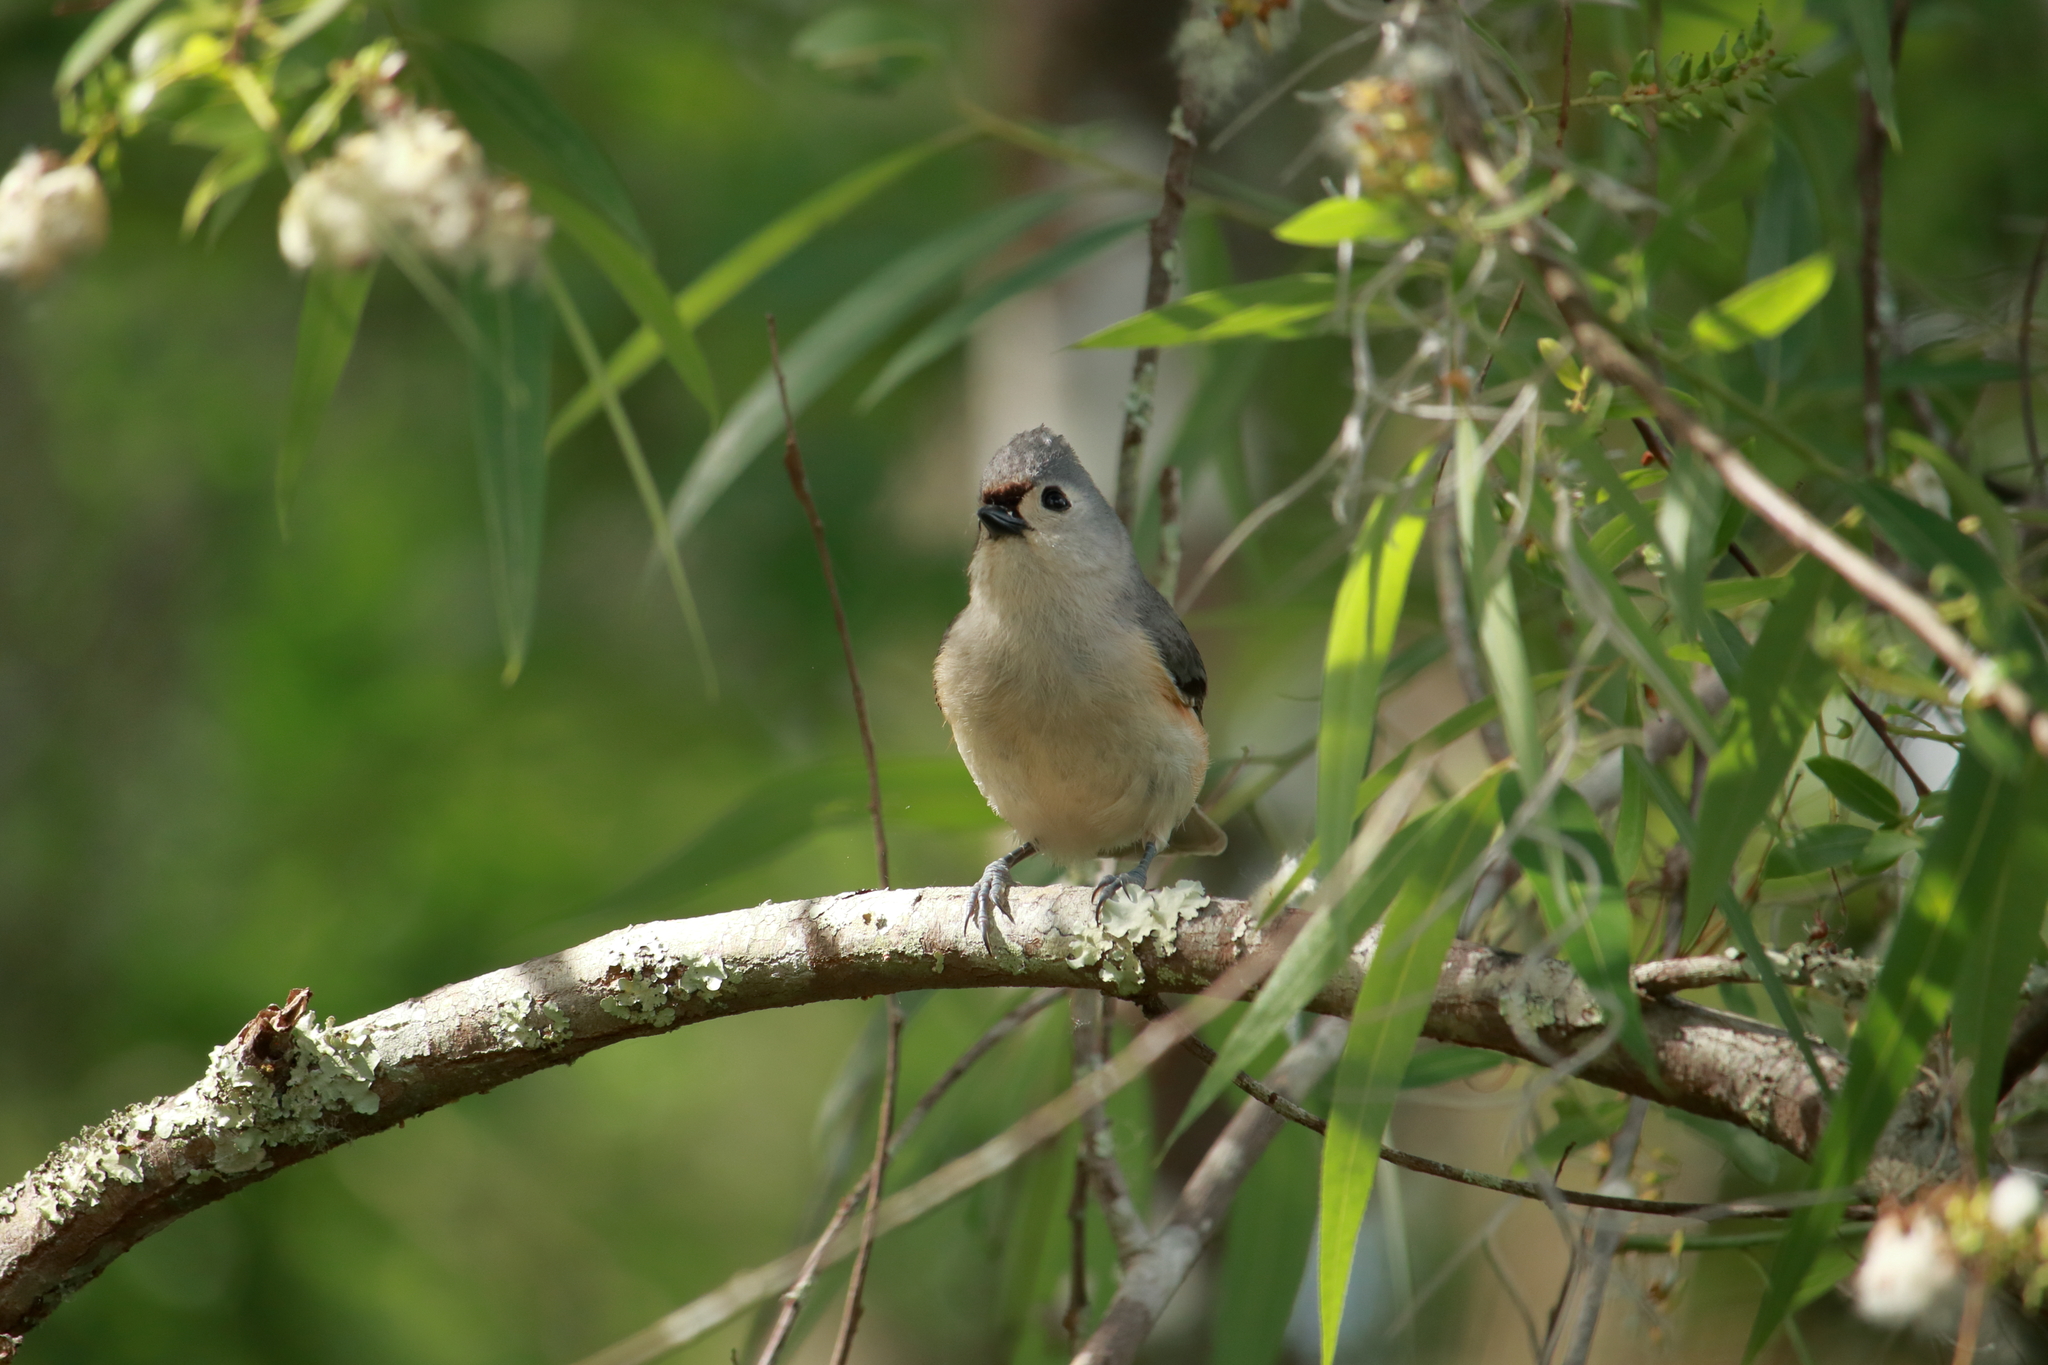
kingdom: Animalia
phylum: Chordata
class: Aves
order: Passeriformes
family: Paridae
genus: Baeolophus
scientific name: Baeolophus bicolor
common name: Tufted titmouse
